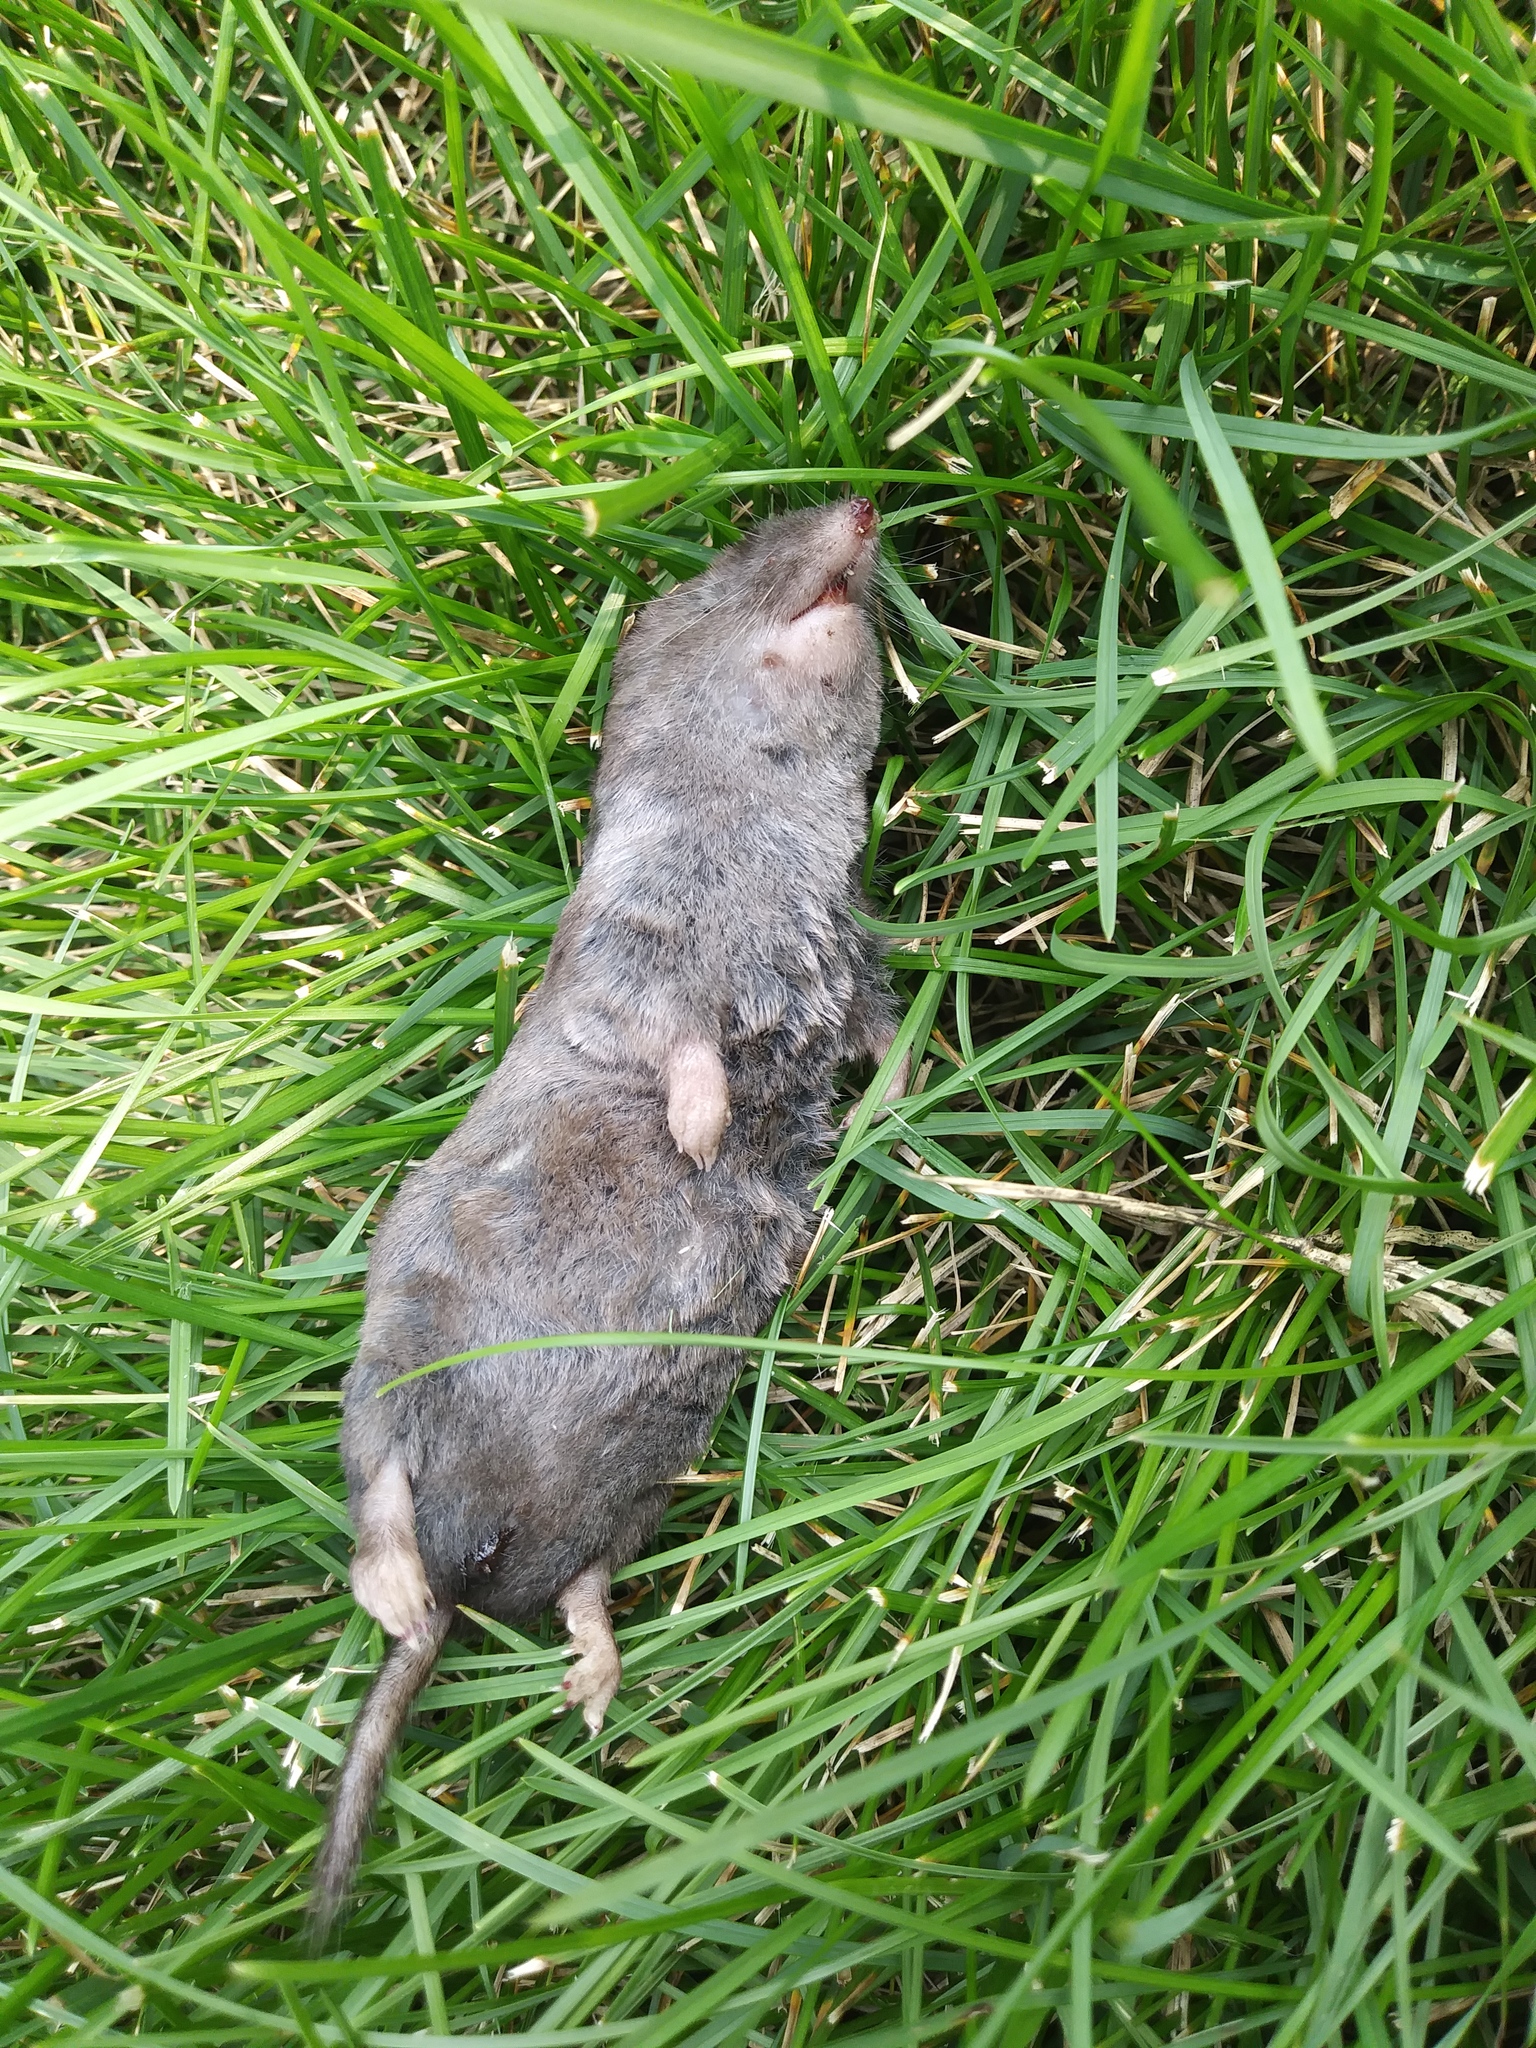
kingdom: Animalia
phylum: Chordata
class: Mammalia
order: Soricomorpha
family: Soricidae
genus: Blarina
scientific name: Blarina brevicauda
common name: Northern short-tailed shrew
